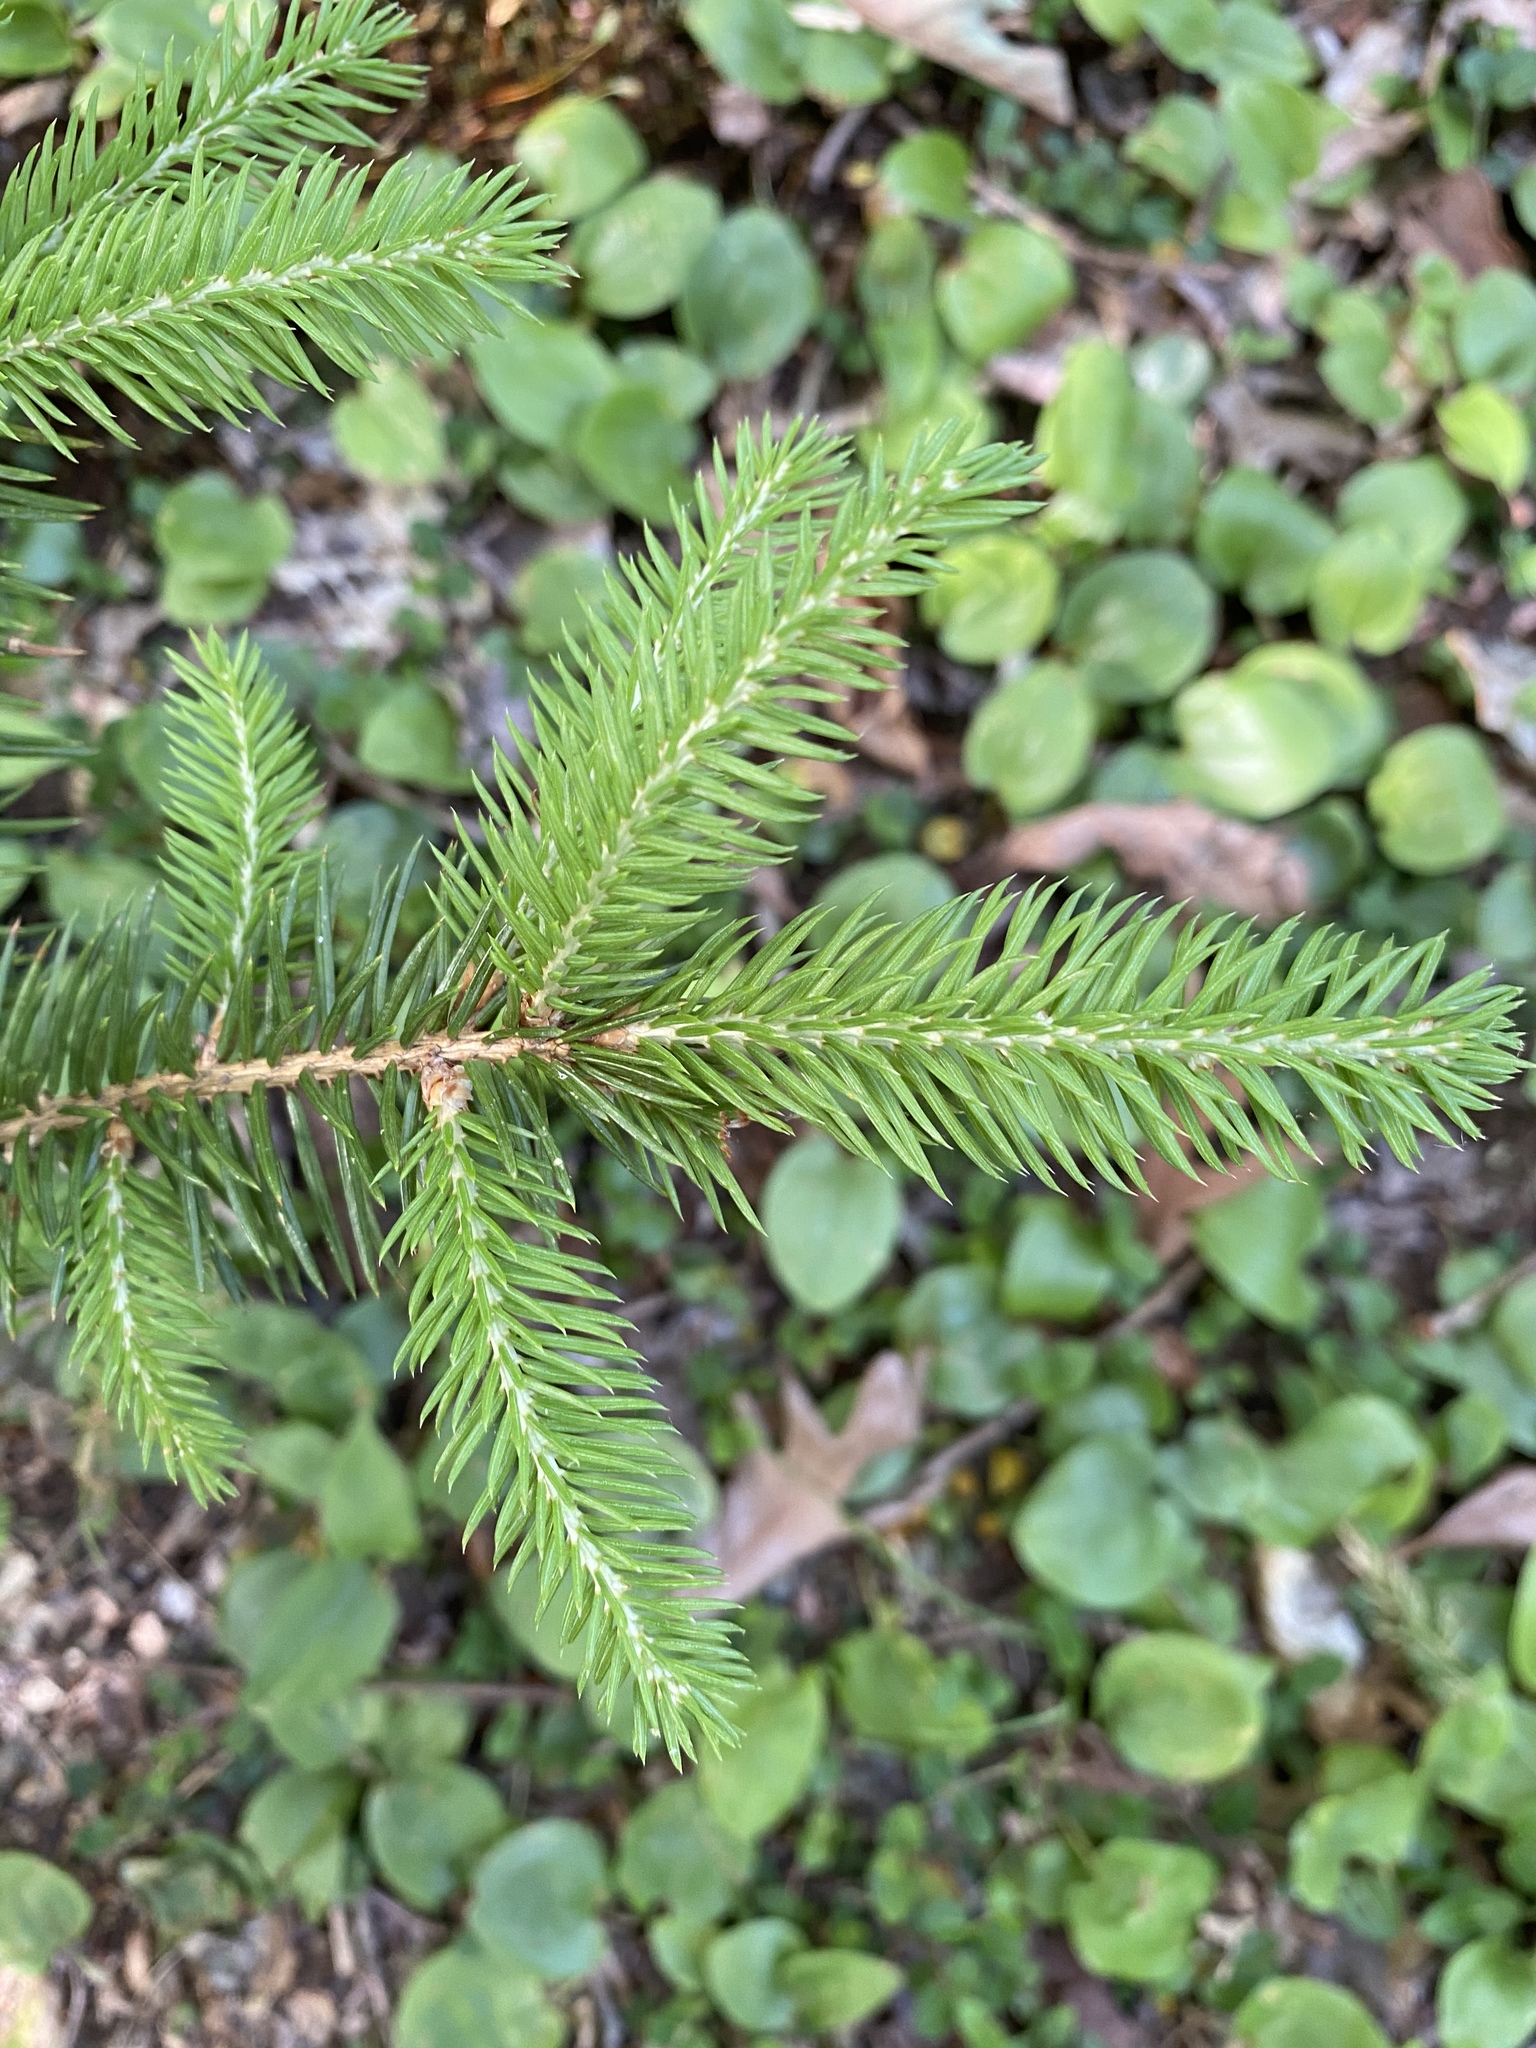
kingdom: Plantae
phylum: Tracheophyta
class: Pinopsida
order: Pinales
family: Pinaceae
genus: Picea
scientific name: Picea abies
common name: Norway spruce
